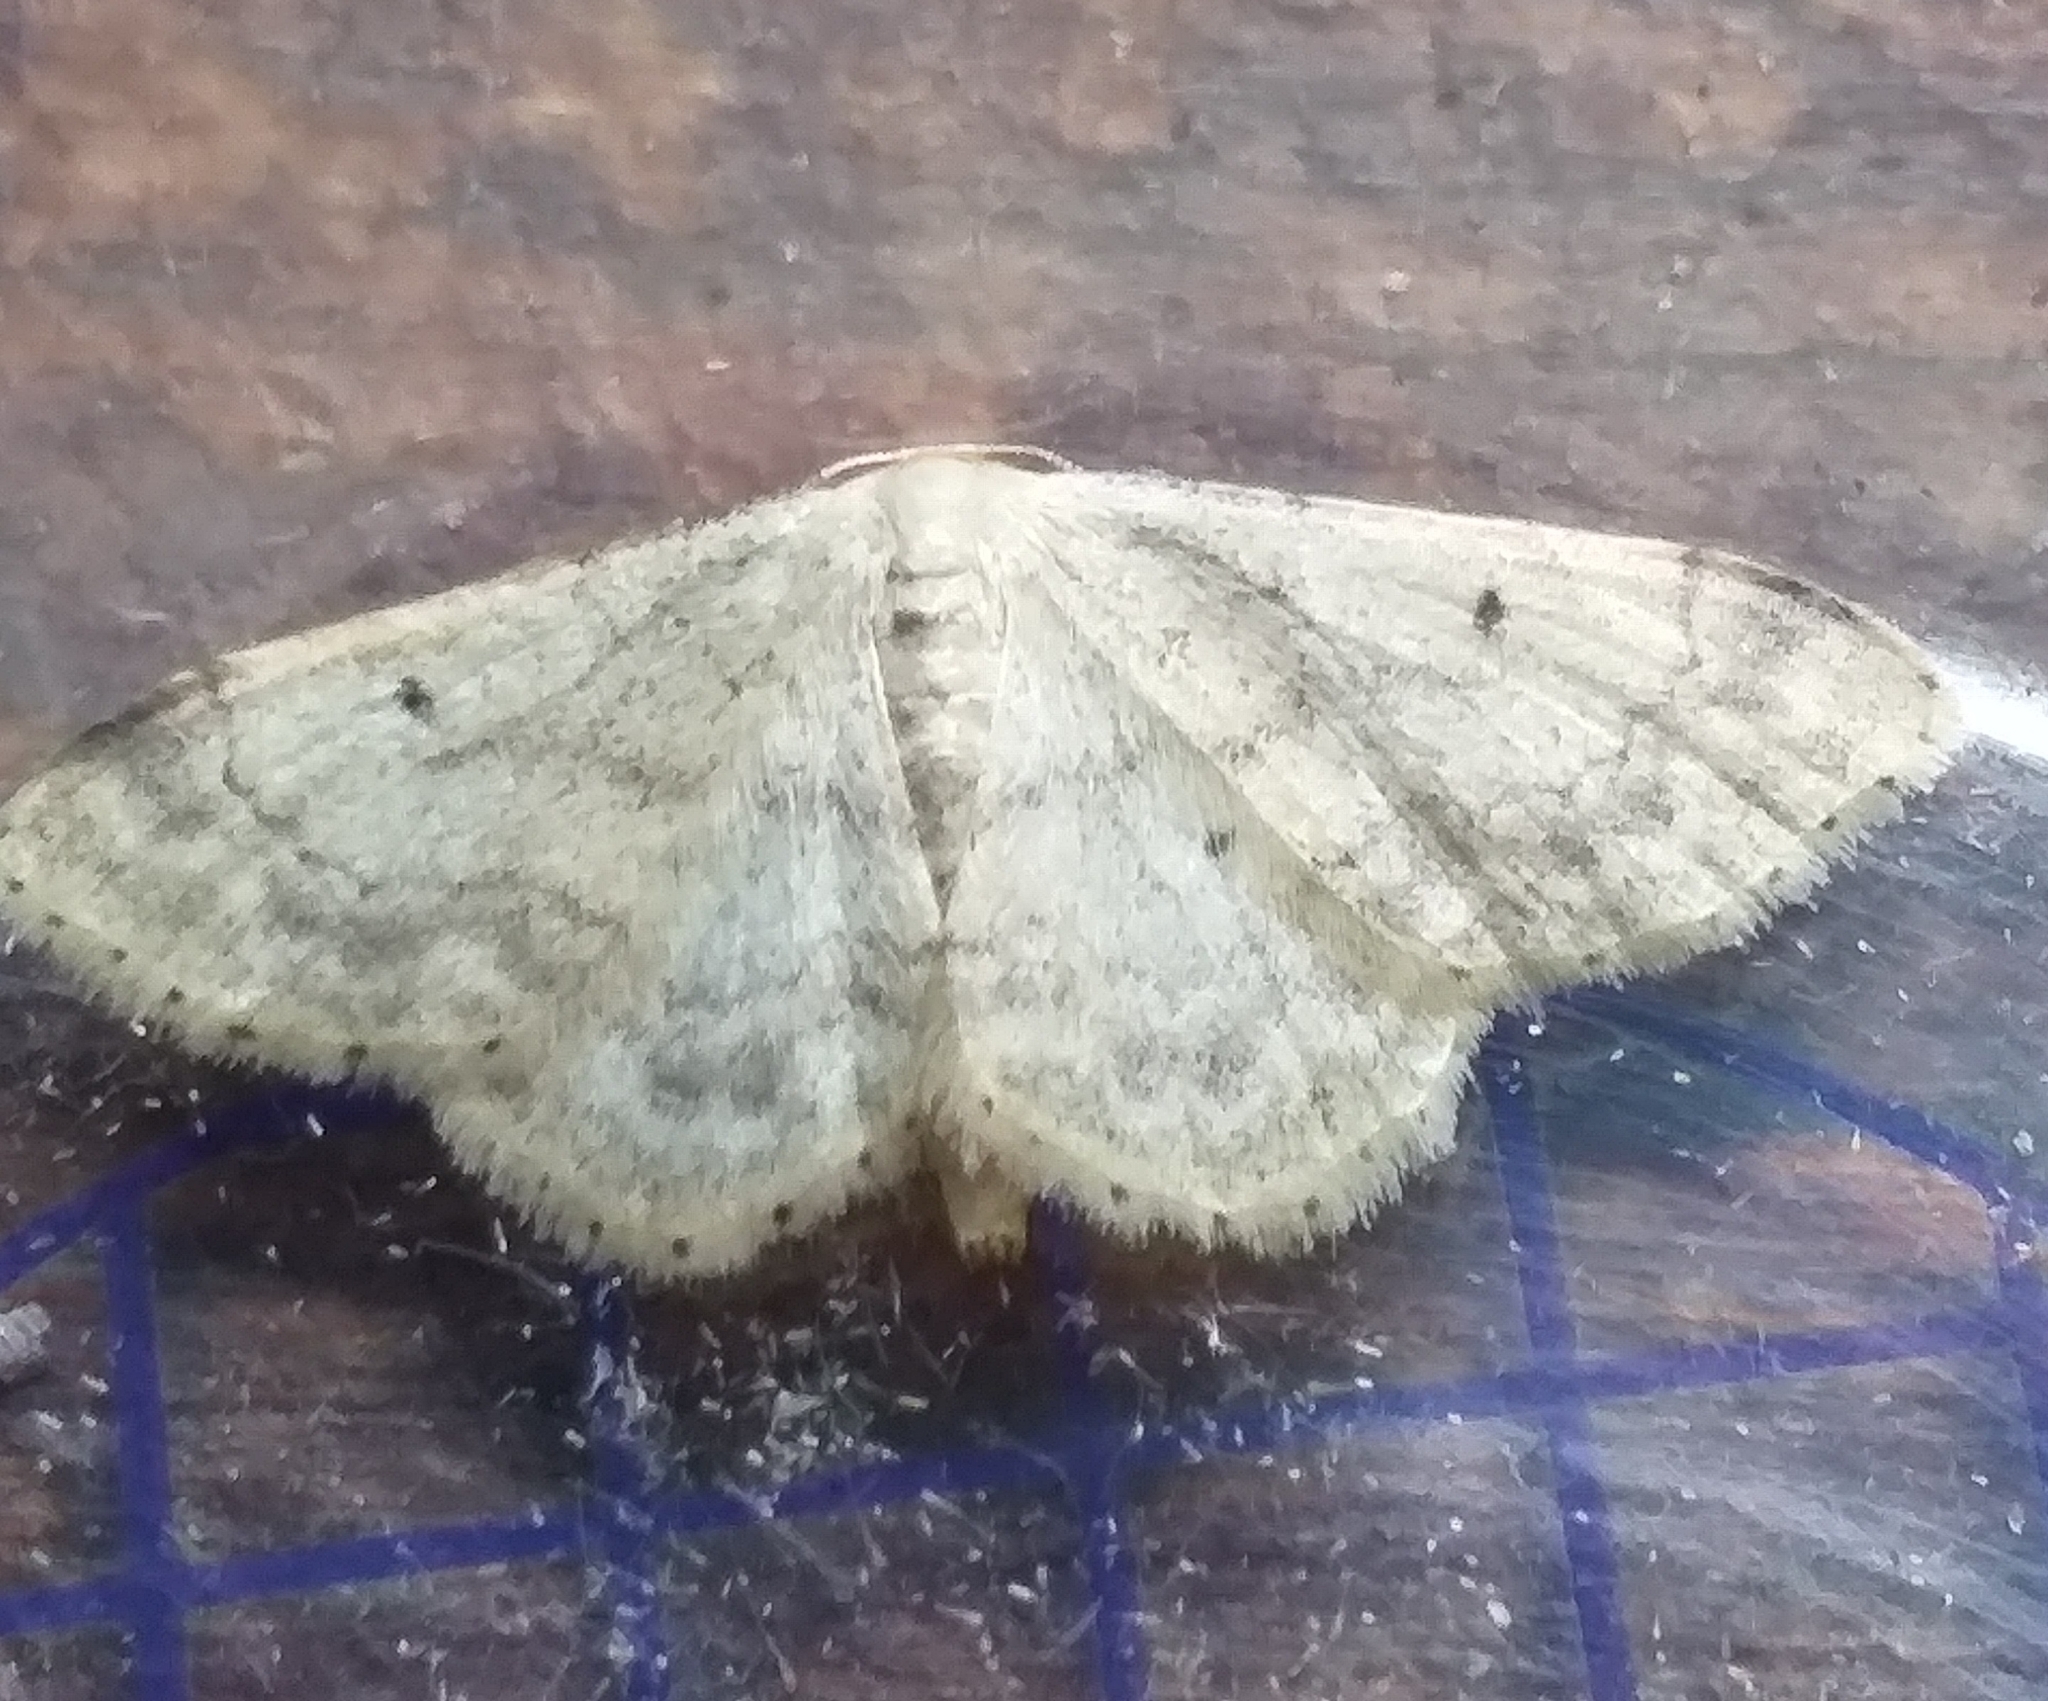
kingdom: Animalia
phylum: Arthropoda
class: Insecta
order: Lepidoptera
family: Geometridae
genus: Idaea
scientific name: Idaea biselata
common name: Small fan-footed wave
